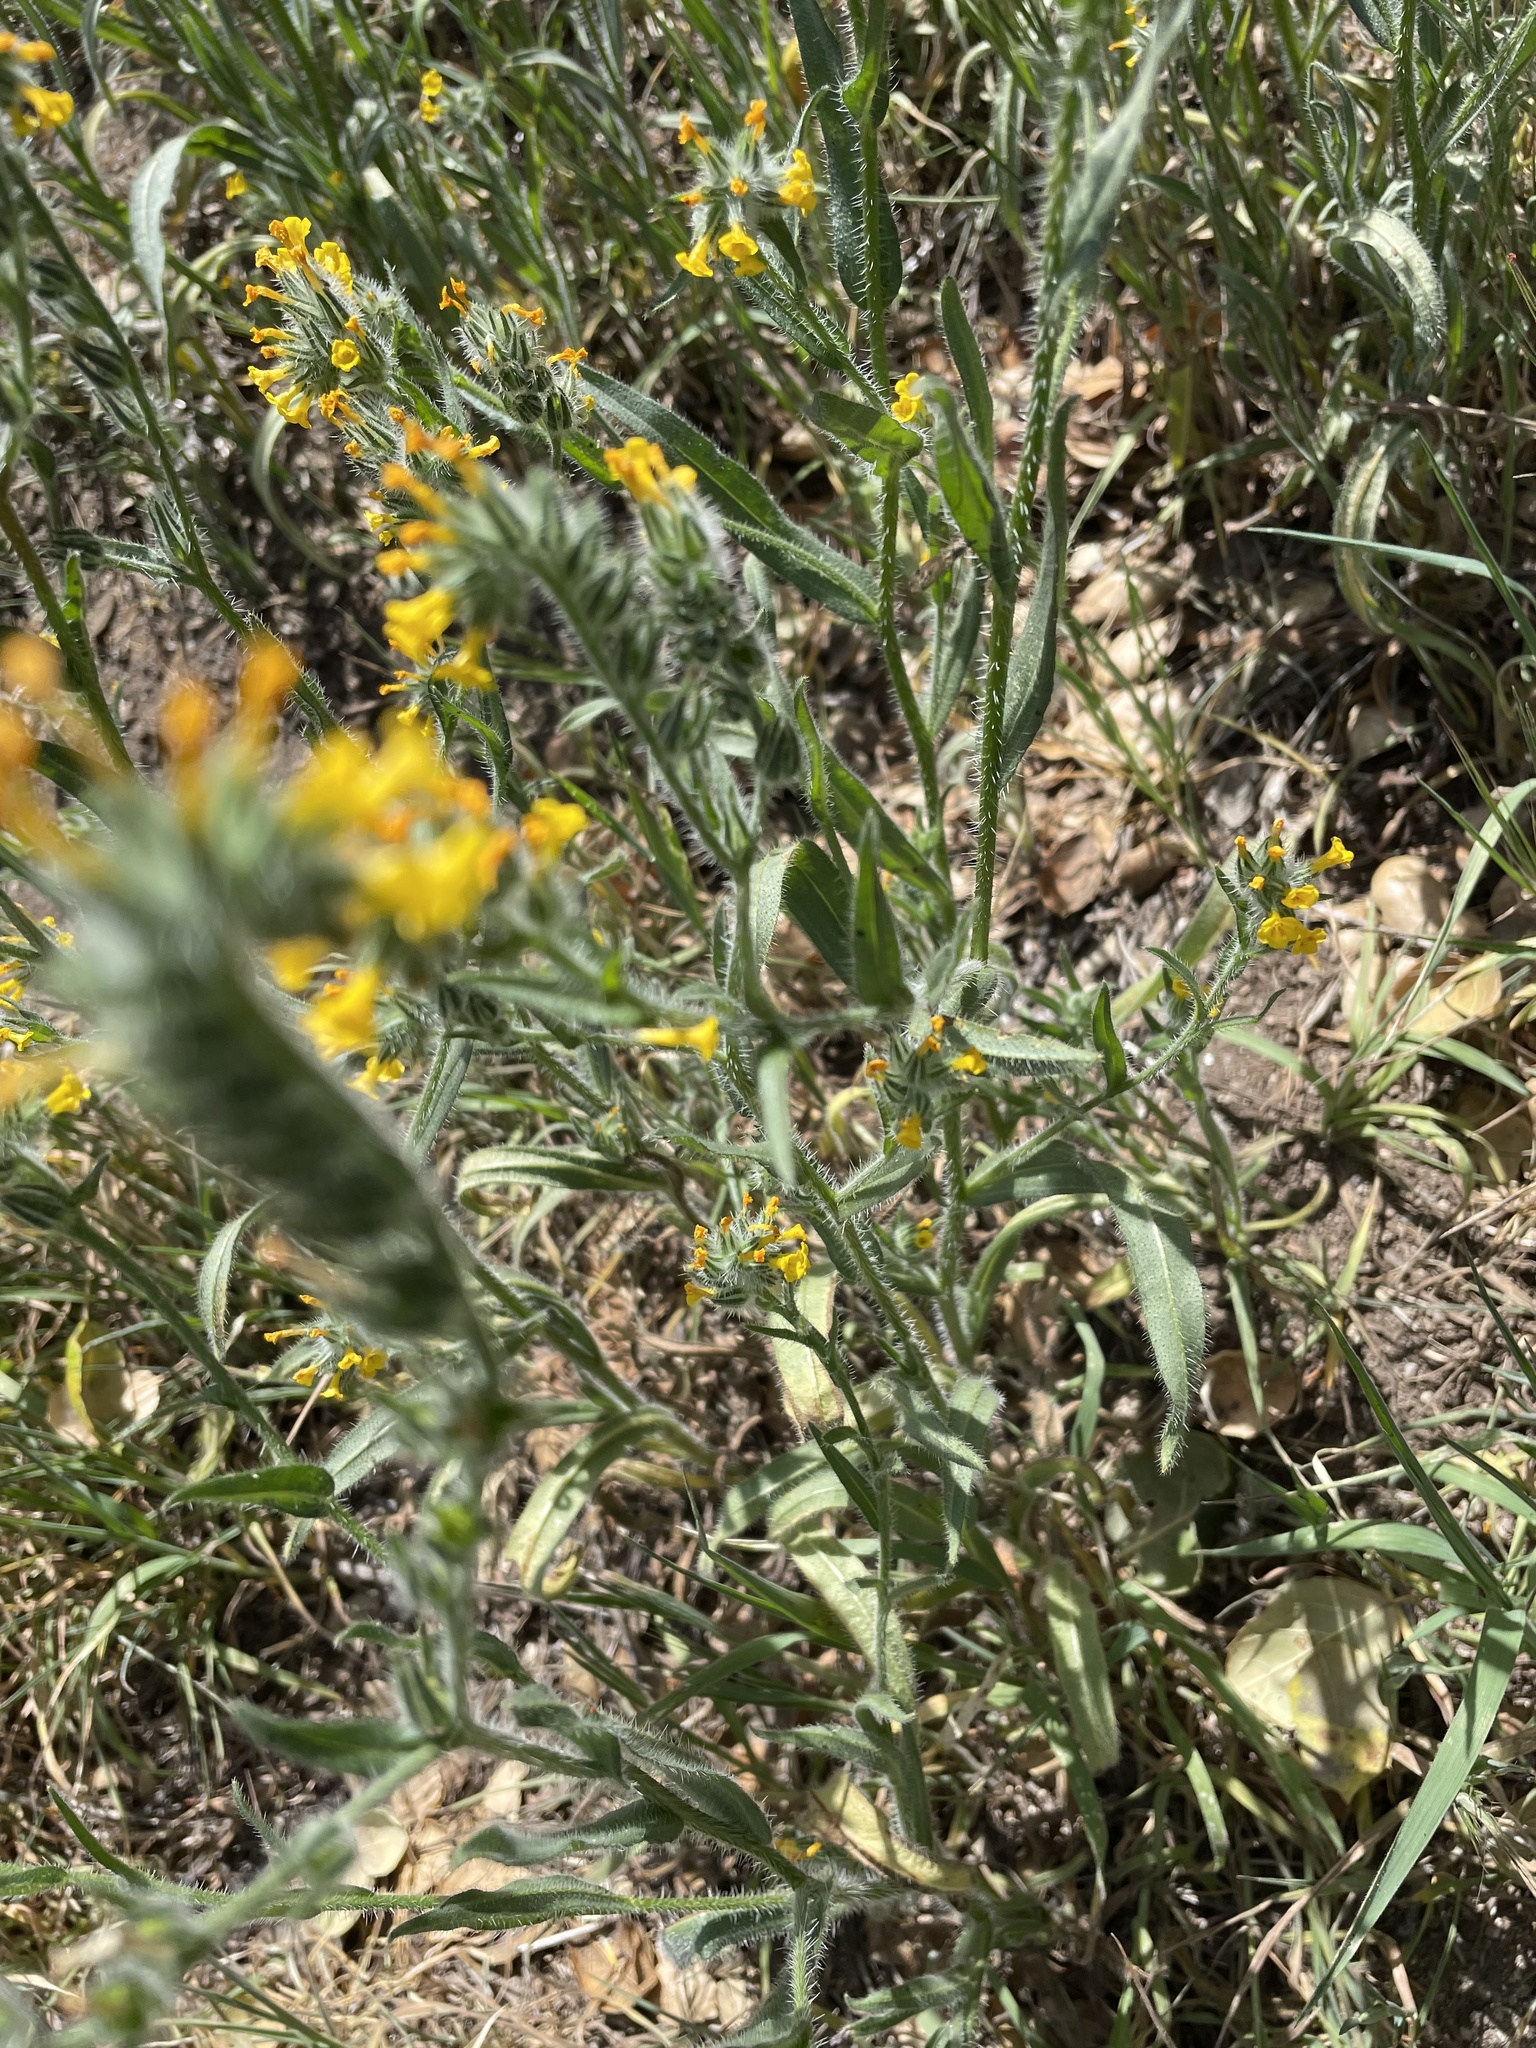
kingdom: Plantae
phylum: Tracheophyta
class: Magnoliopsida
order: Boraginales
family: Boraginaceae
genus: Amsinckia
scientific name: Amsinckia menziesii
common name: Menzies' fiddleneck
